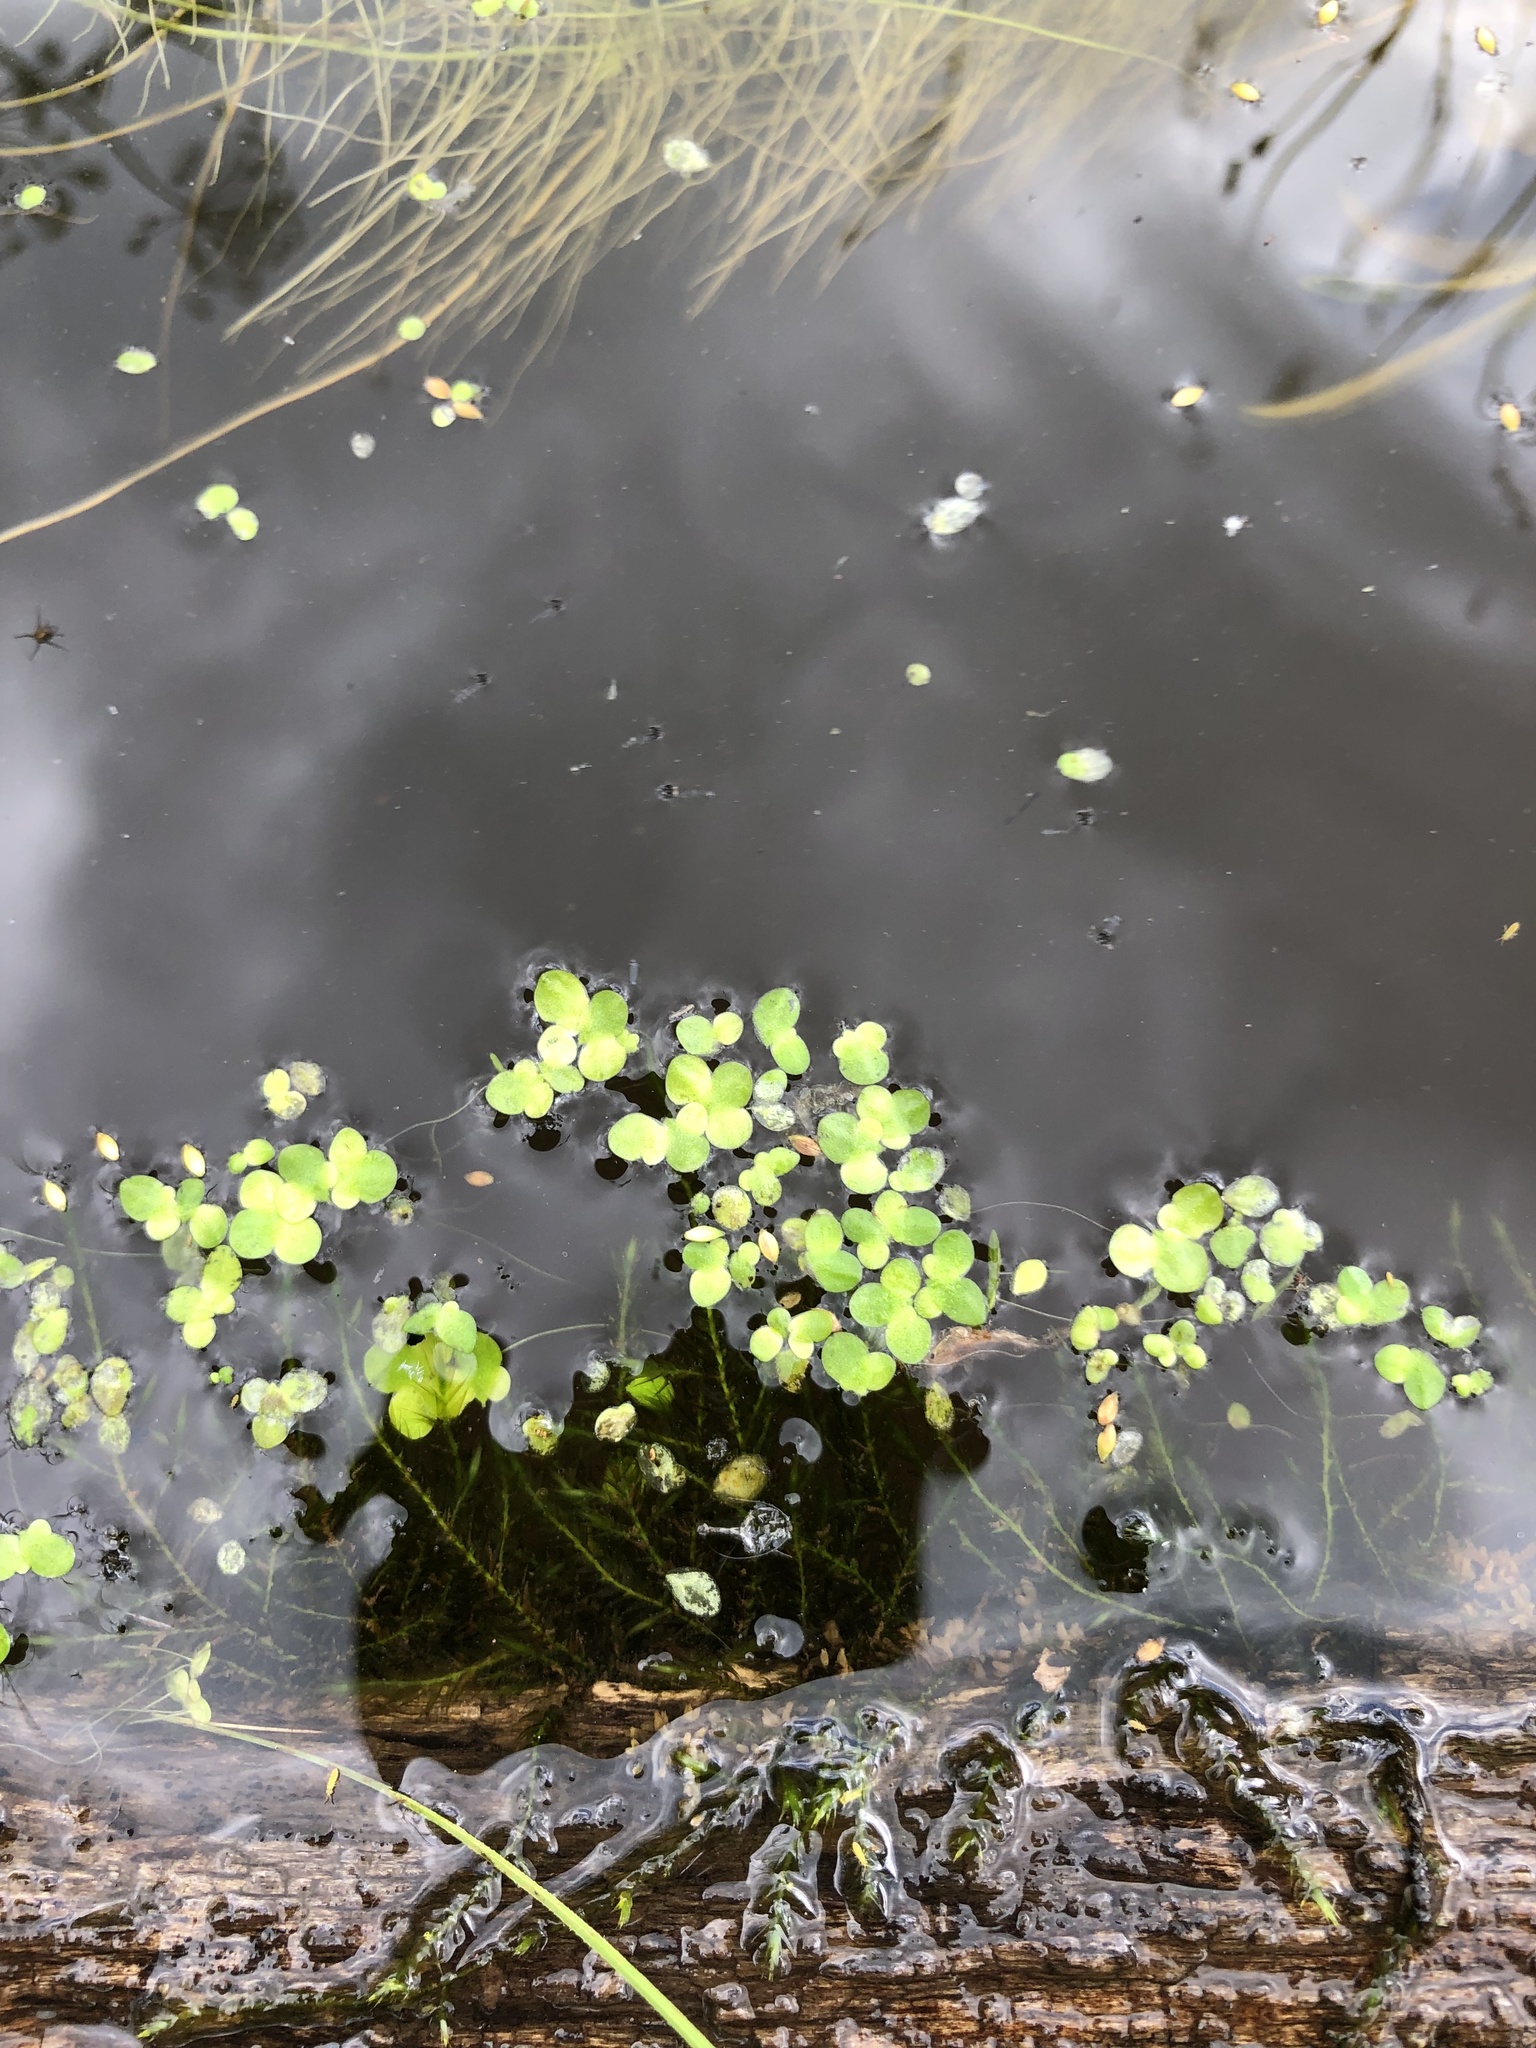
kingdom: Plantae
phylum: Tracheophyta
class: Liliopsida
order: Alismatales
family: Araceae
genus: Spirodela
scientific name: Spirodela polyrhiza
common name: Great duckweed
